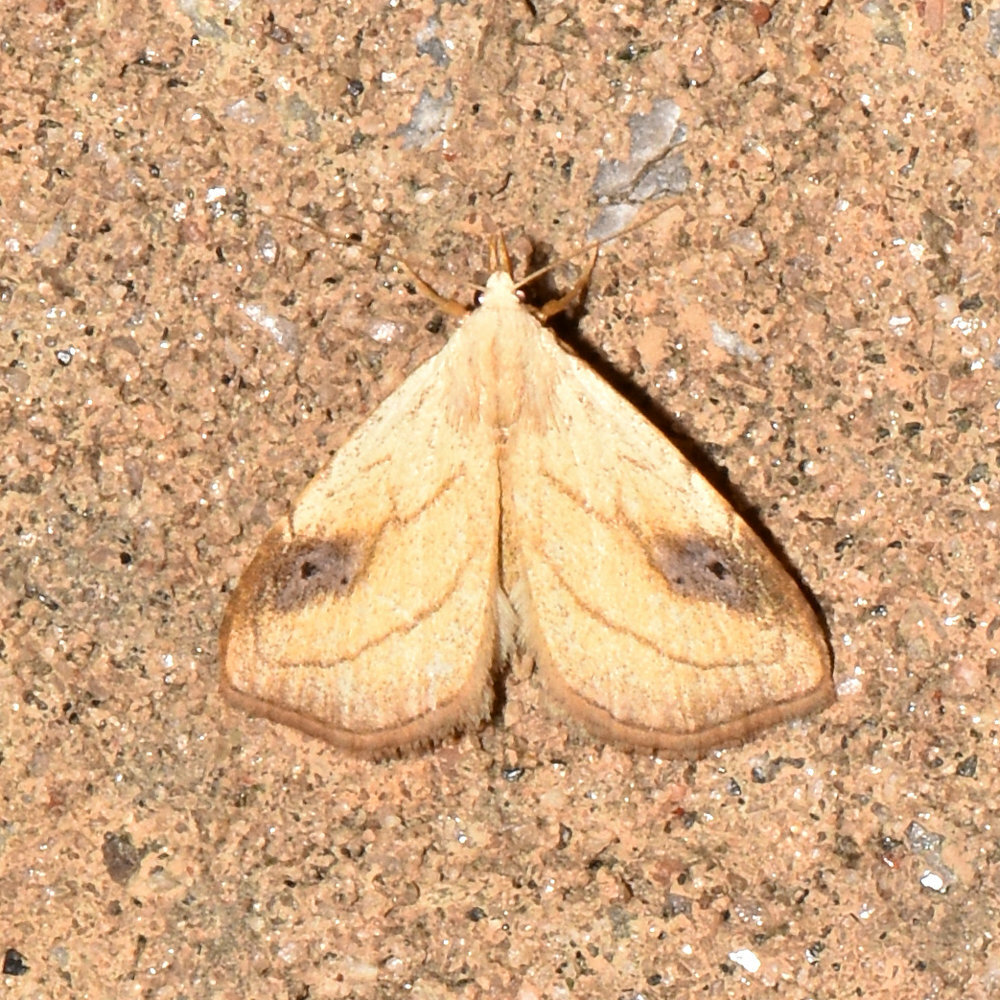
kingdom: Animalia
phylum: Arthropoda
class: Insecta
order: Lepidoptera
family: Erebidae
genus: Rivula
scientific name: Rivula propinqualis
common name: Spotted grass moth
